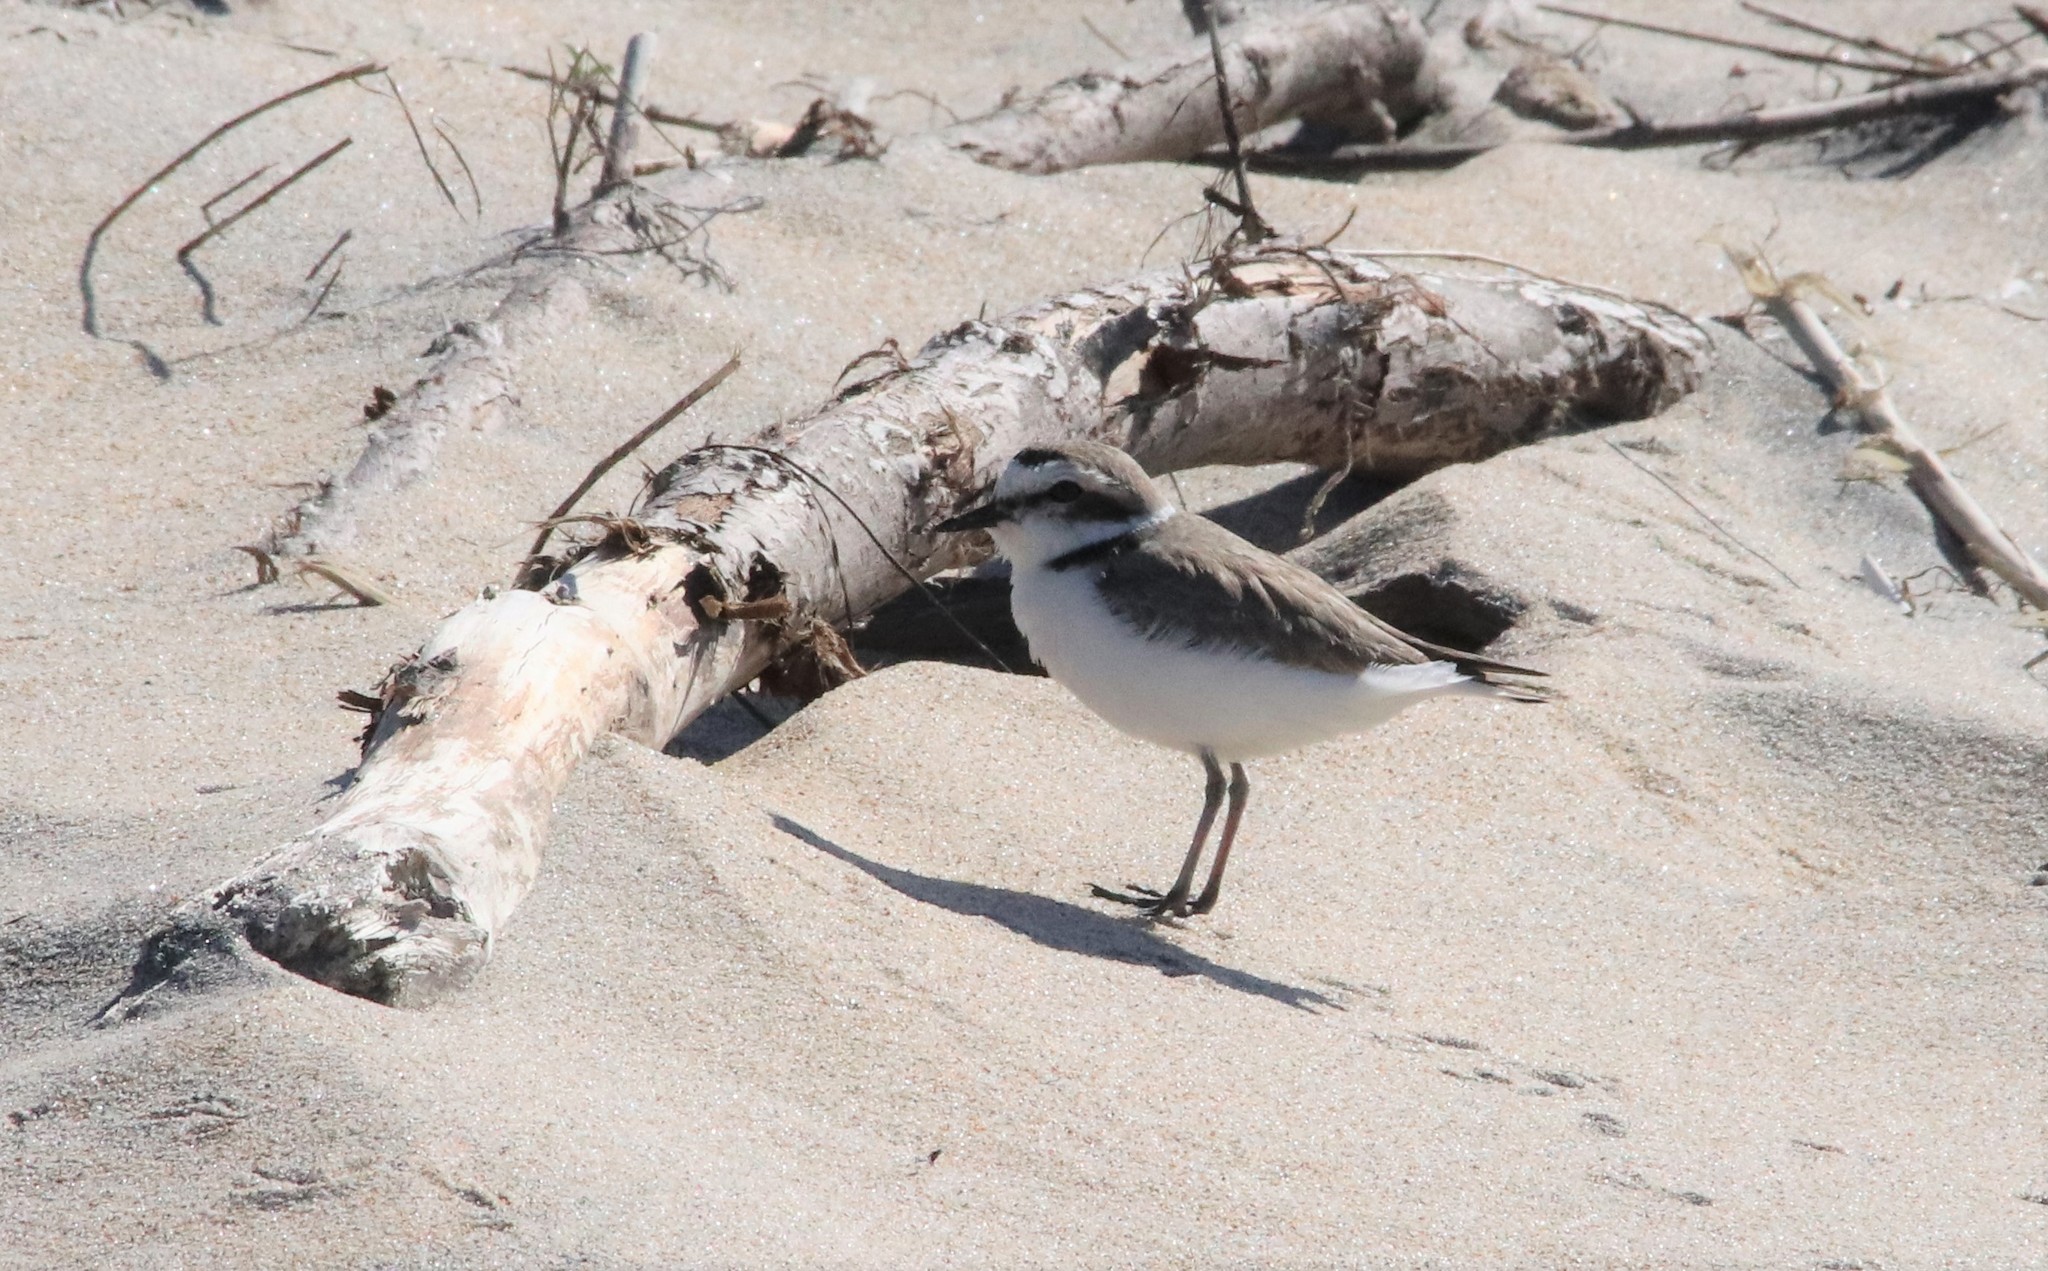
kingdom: Animalia
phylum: Chordata
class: Aves
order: Charadriiformes
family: Charadriidae
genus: Anarhynchus
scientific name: Anarhynchus
